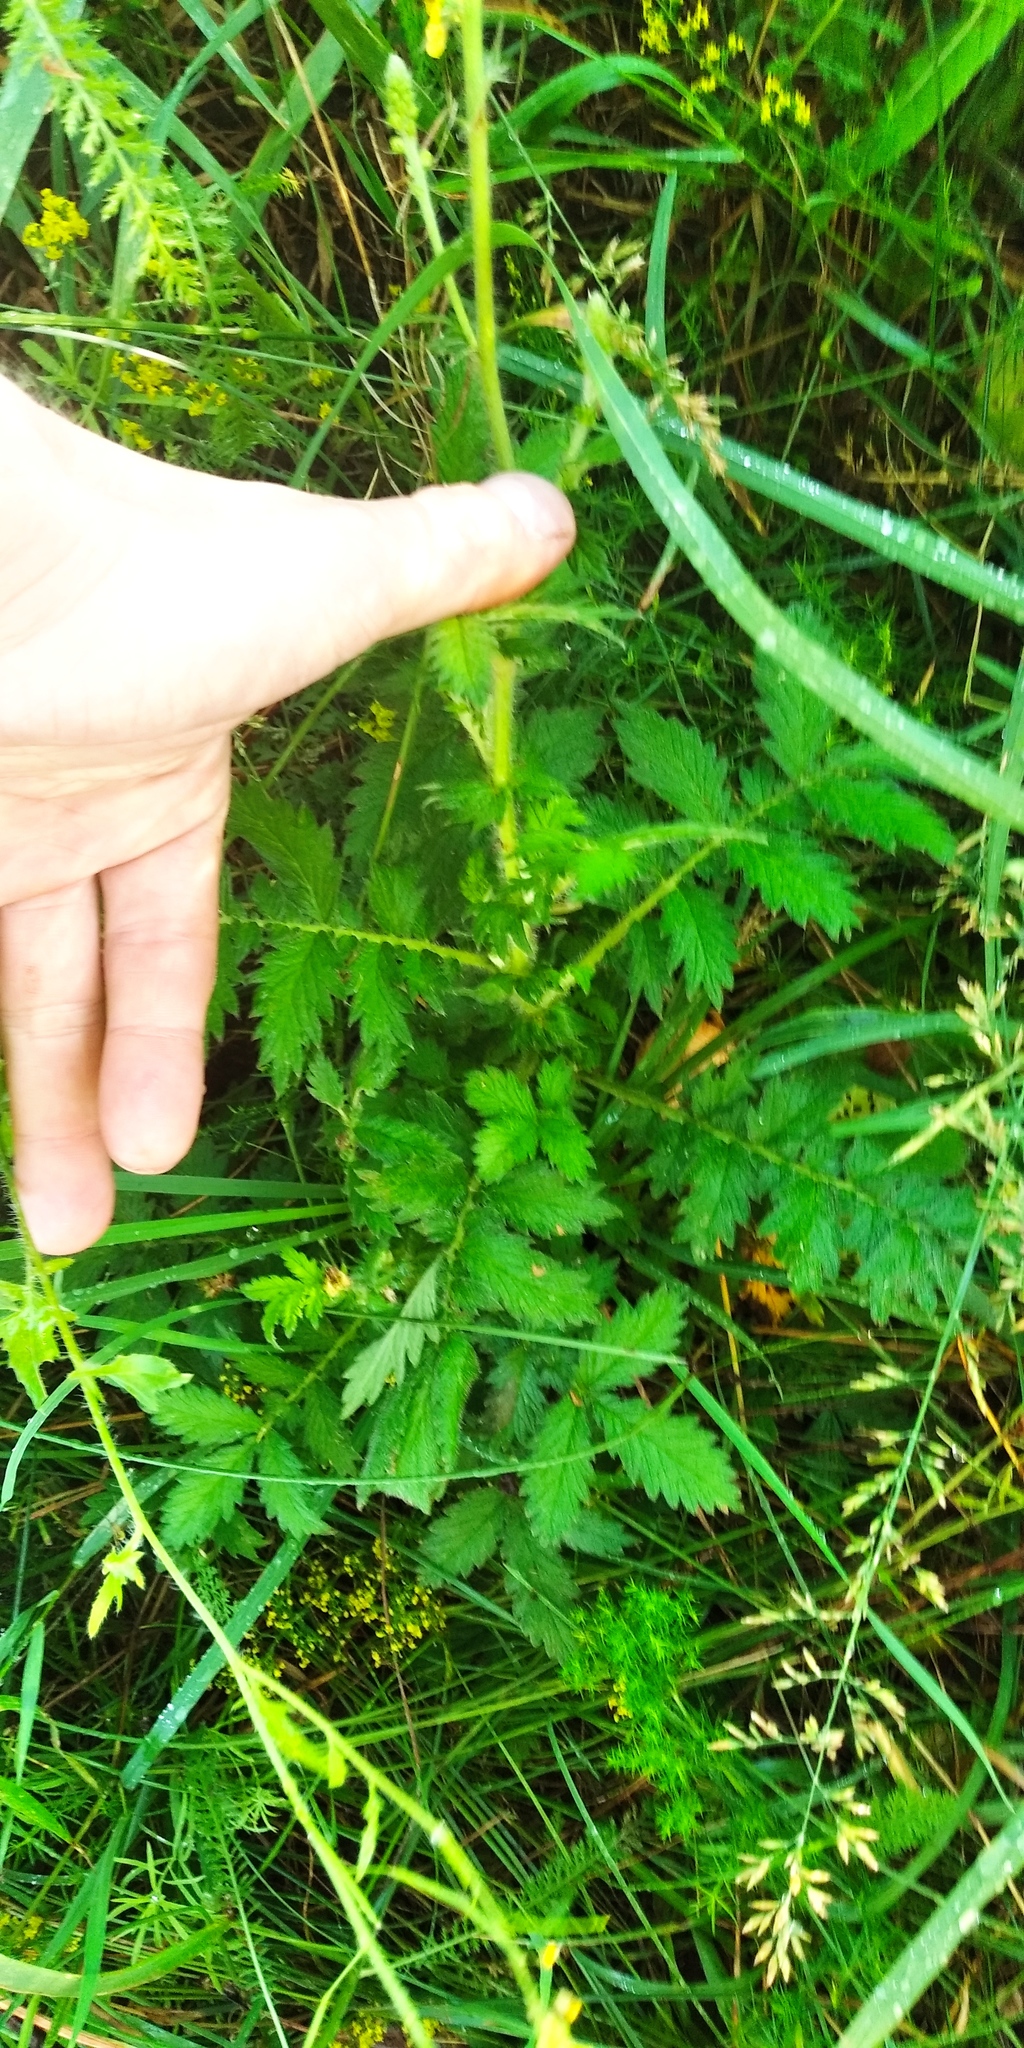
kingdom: Plantae
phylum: Tracheophyta
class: Magnoliopsida
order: Rosales
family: Rosaceae
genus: Agrimonia
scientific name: Agrimonia eupatoria
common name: Agrimony
